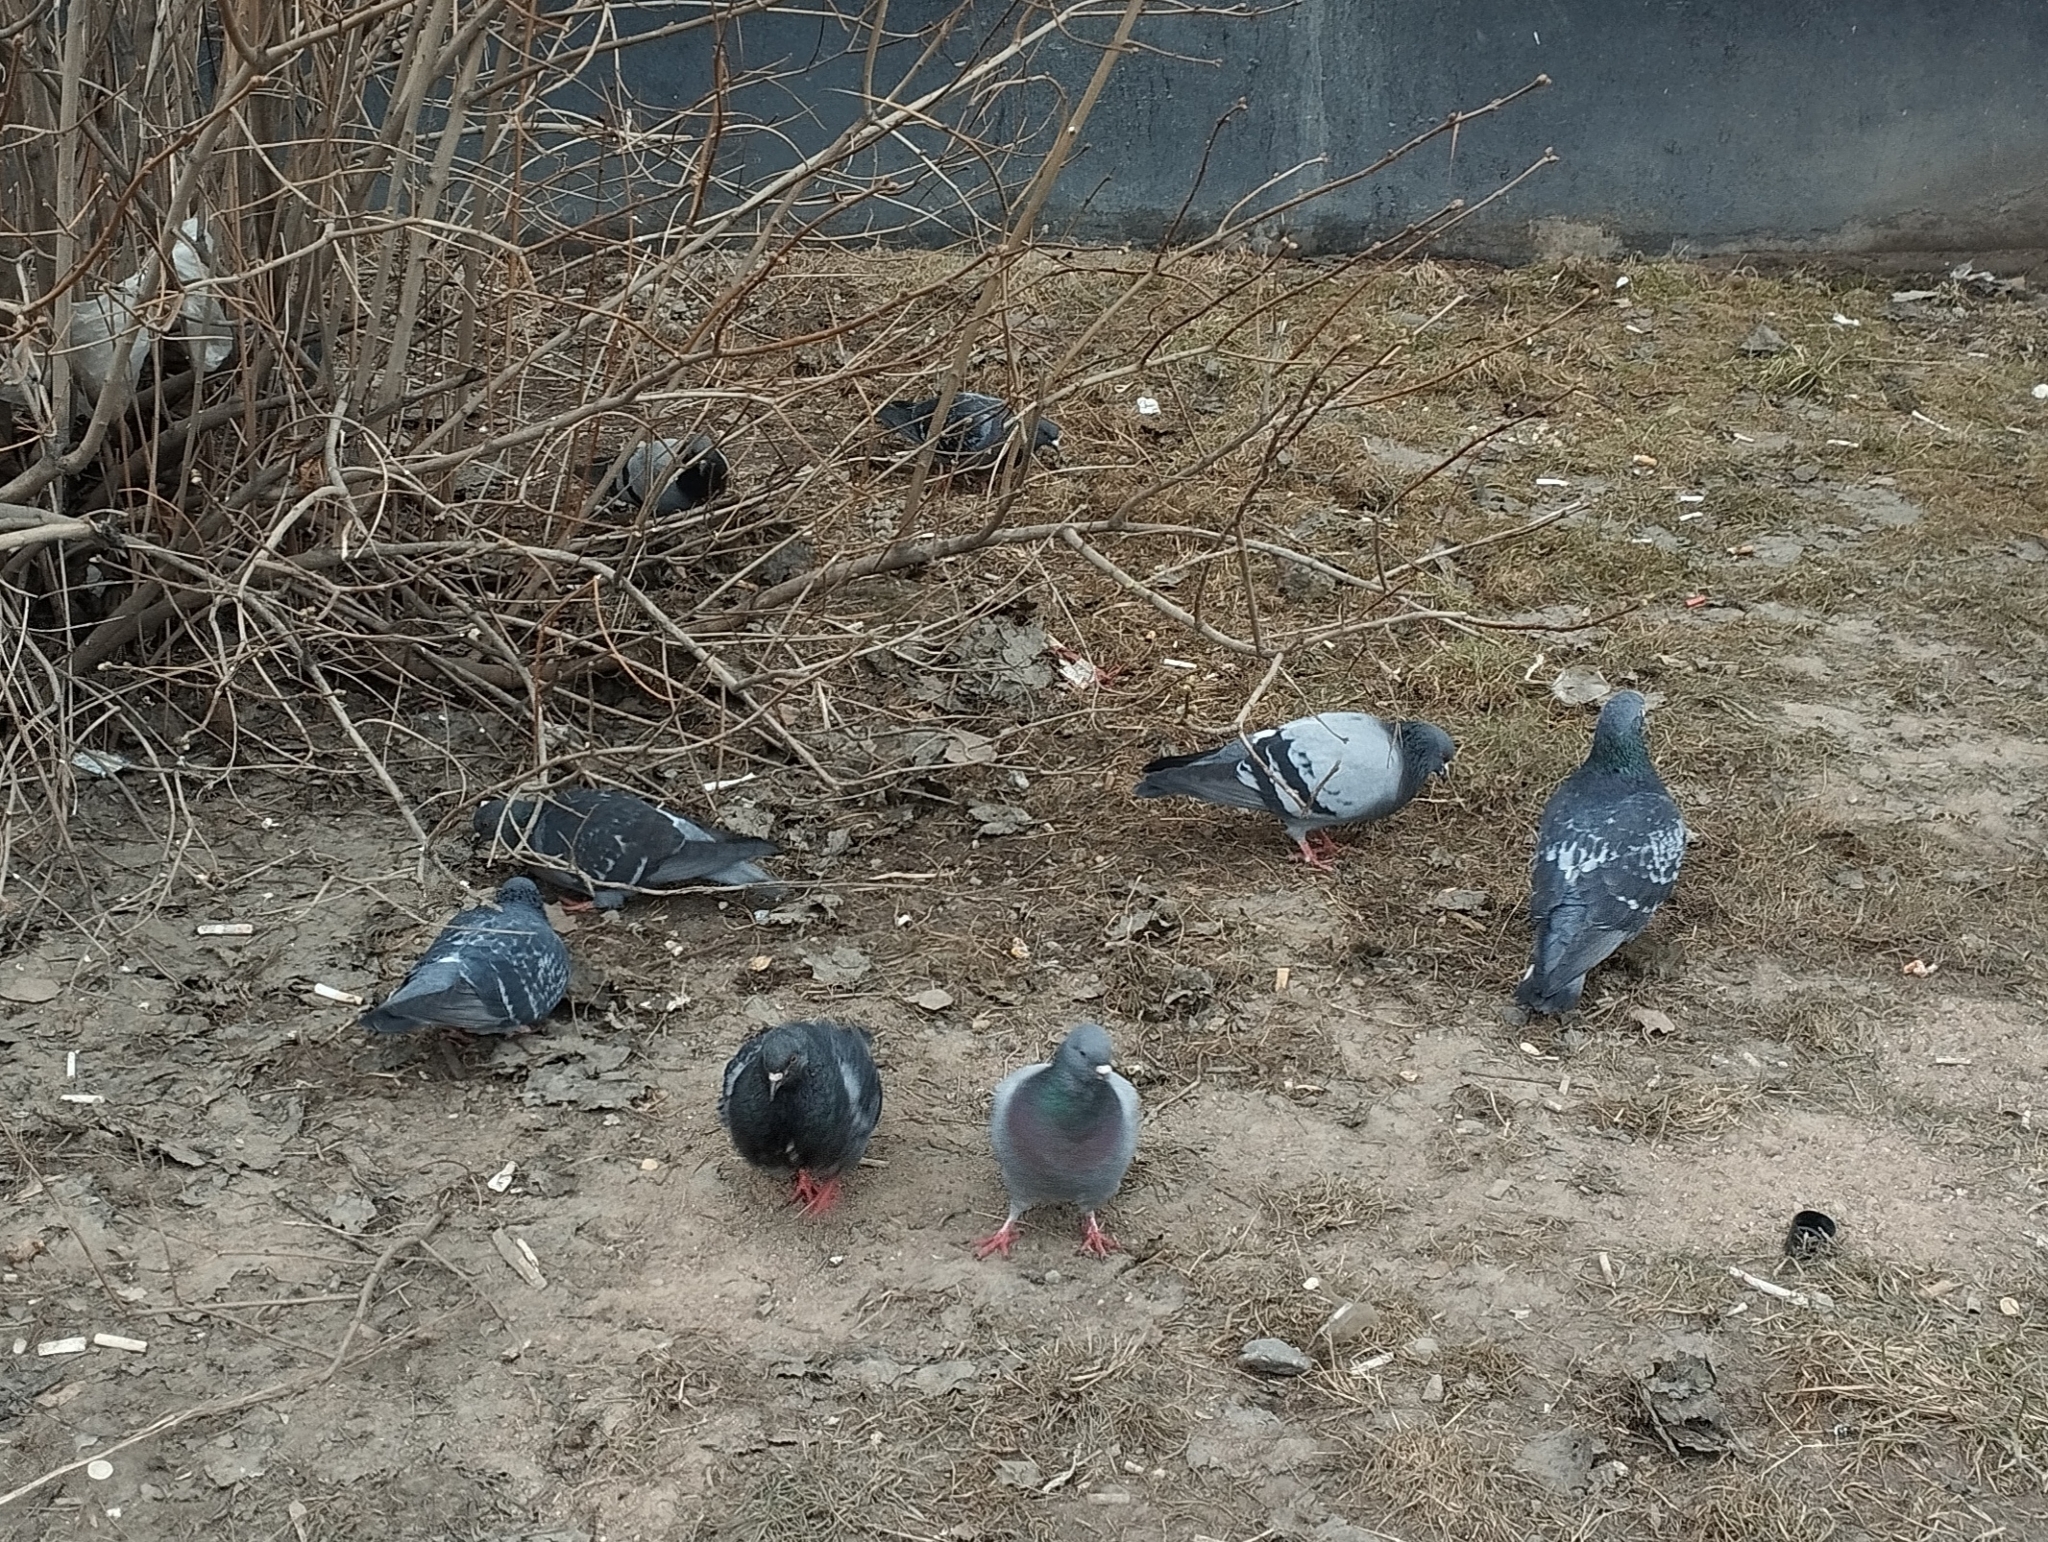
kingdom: Animalia
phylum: Chordata
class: Aves
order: Columbiformes
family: Columbidae
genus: Columba
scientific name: Columba livia
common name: Rock pigeon
